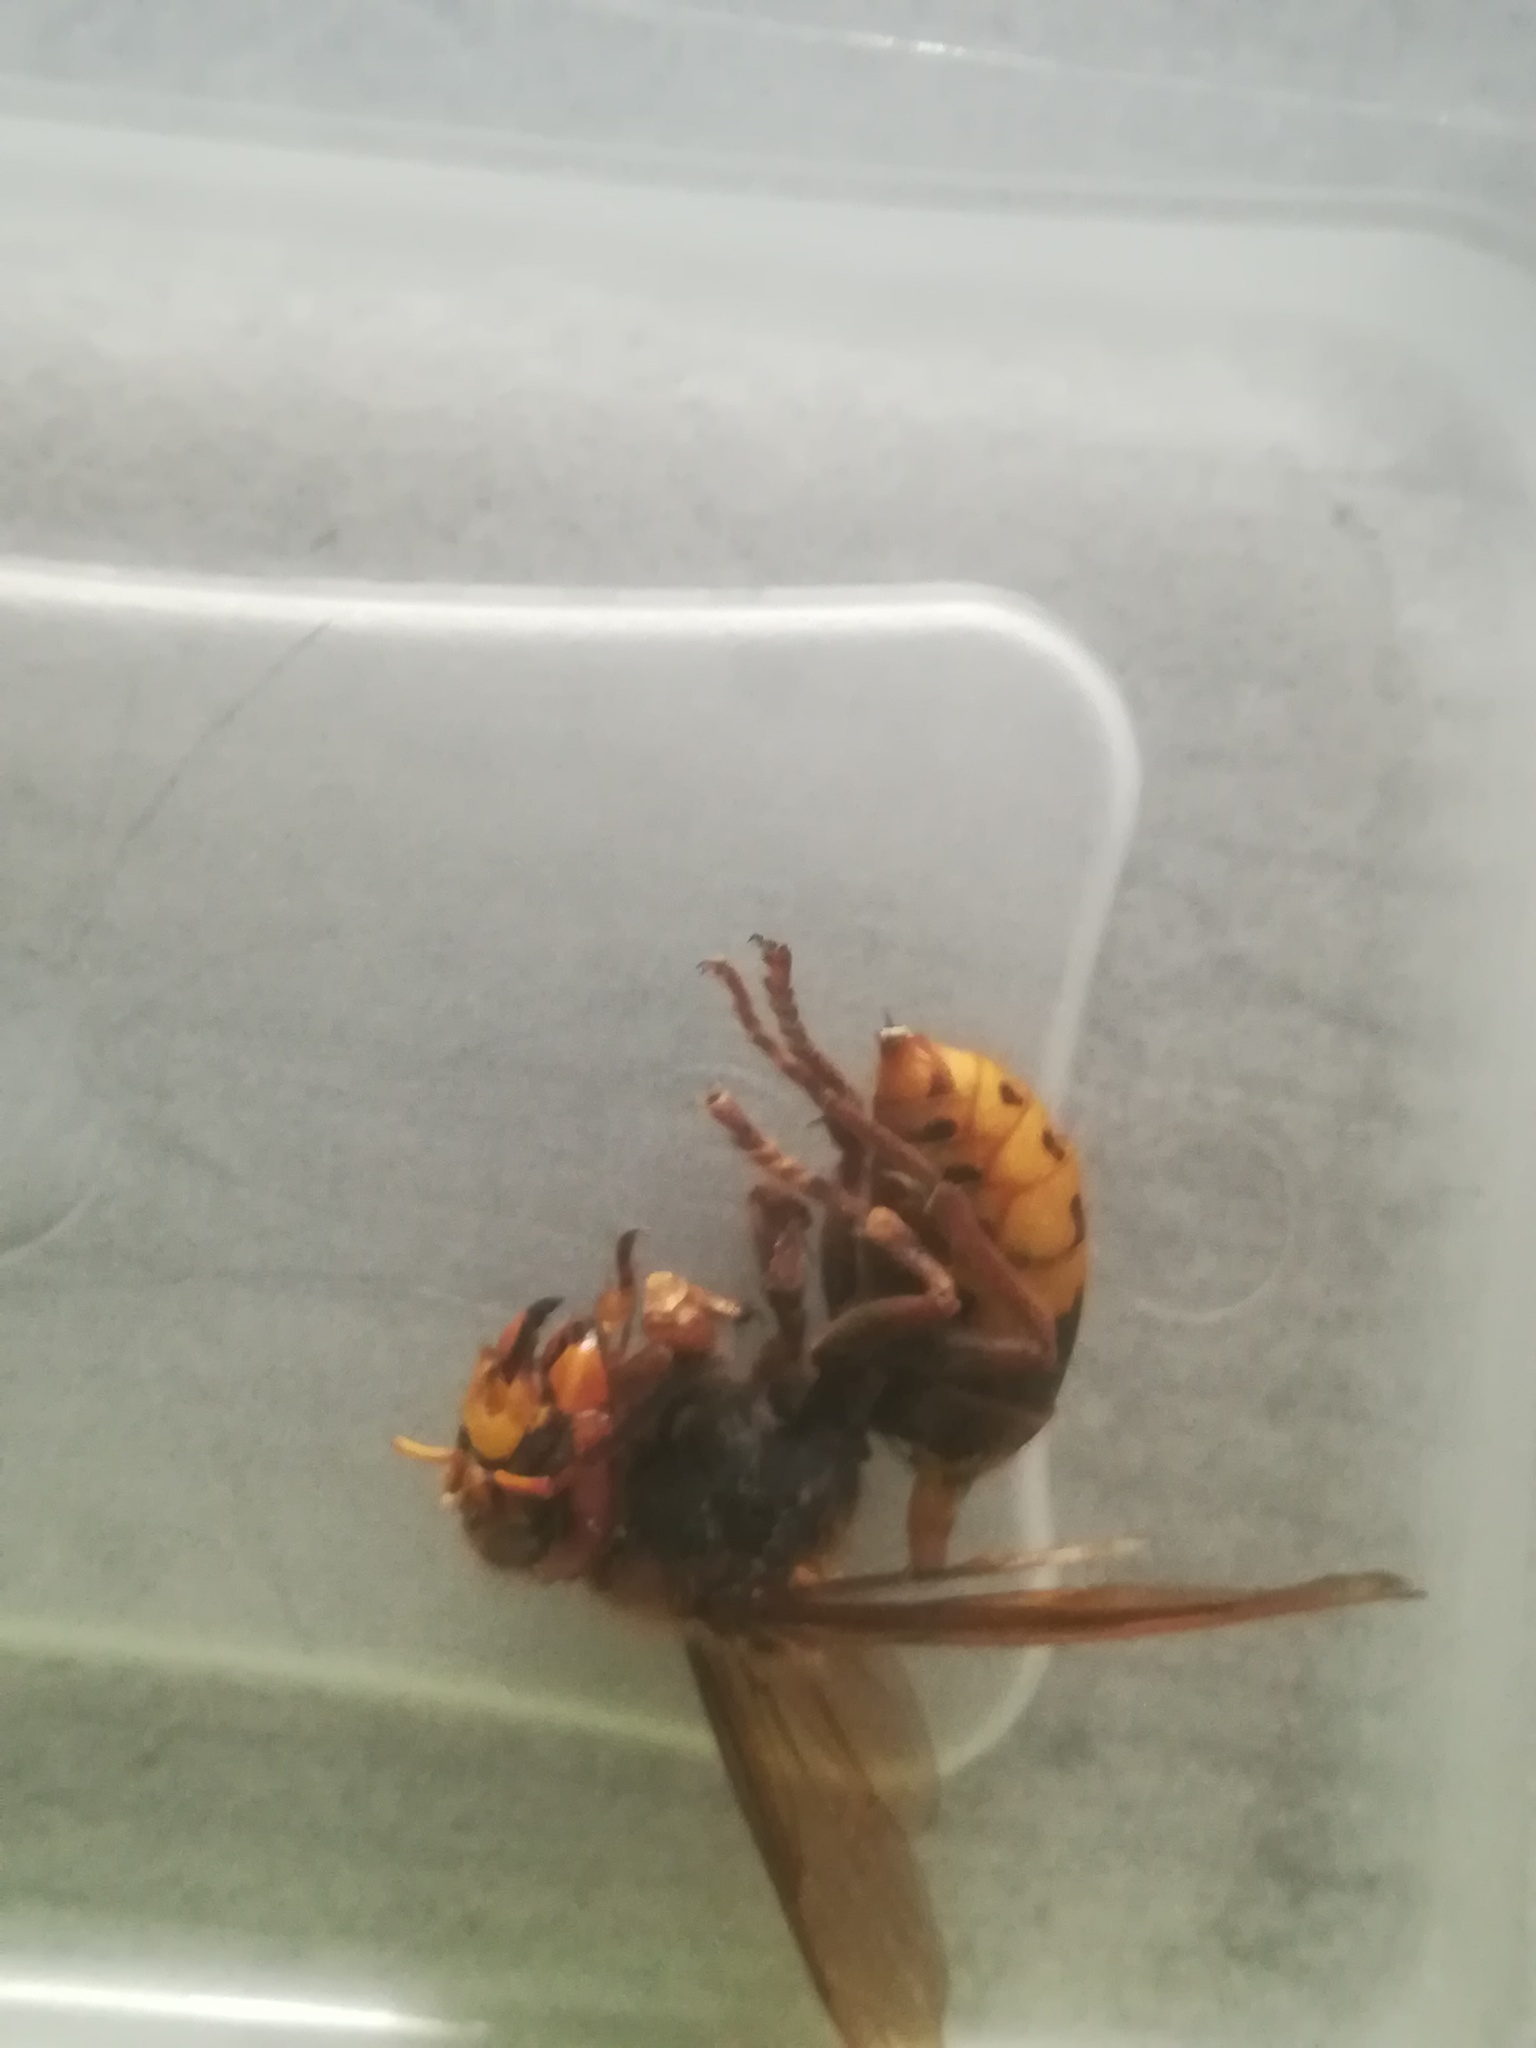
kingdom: Animalia
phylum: Arthropoda
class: Insecta
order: Hymenoptera
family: Vespidae
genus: Vespa
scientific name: Vespa crabro
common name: Hornet
